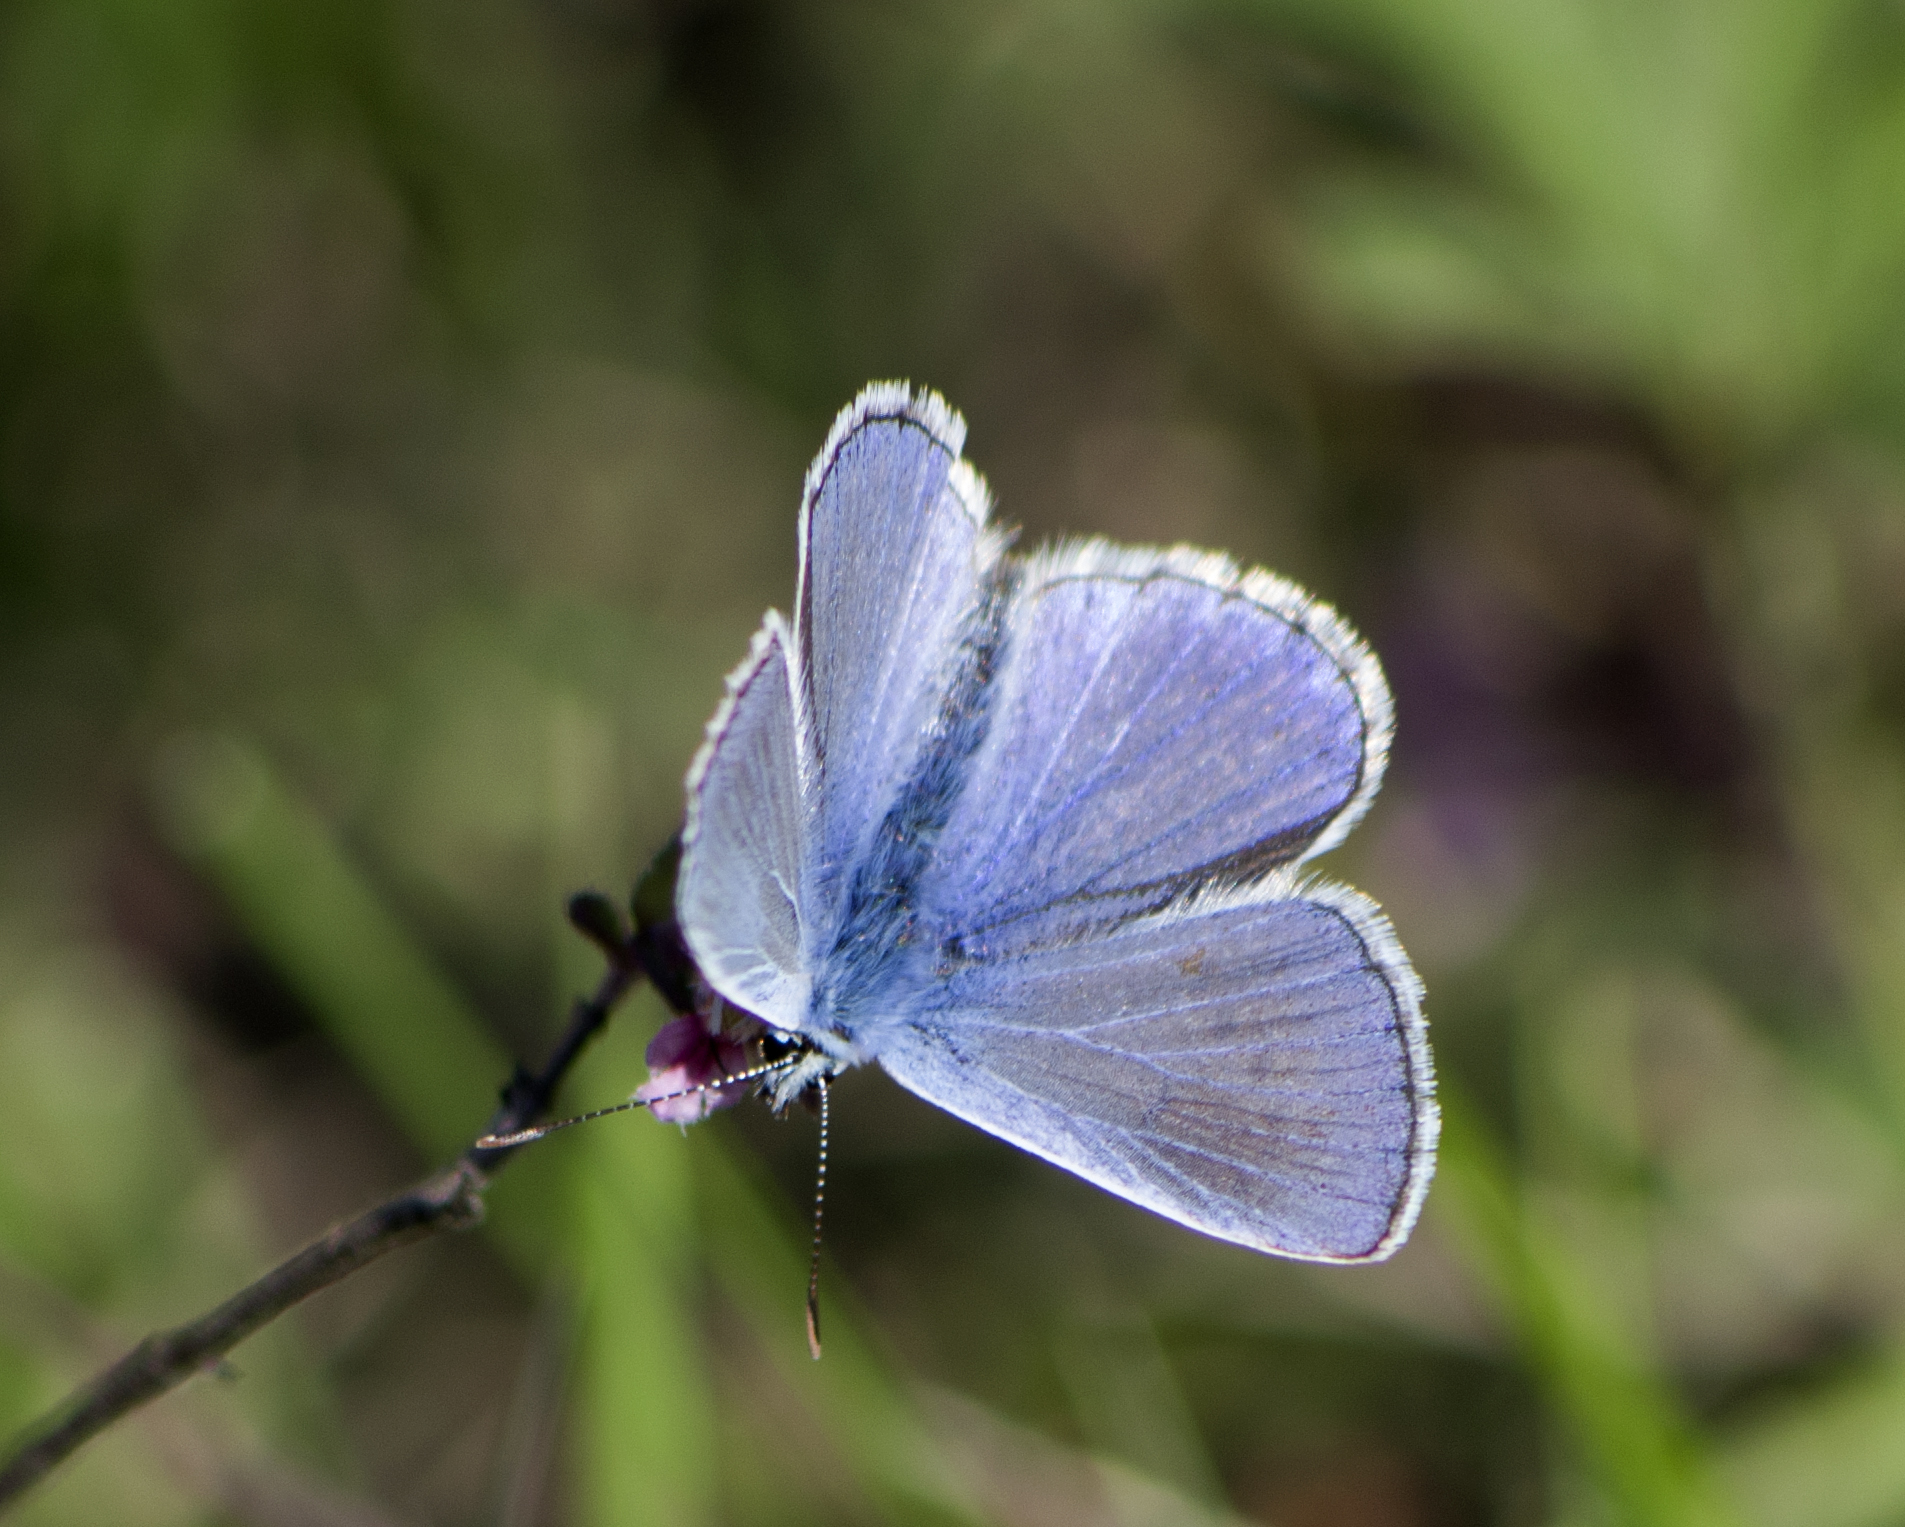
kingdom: Animalia
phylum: Arthropoda
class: Insecta
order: Lepidoptera
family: Lycaenidae
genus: Polyommatus
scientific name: Polyommatus icarus
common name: Common blue
